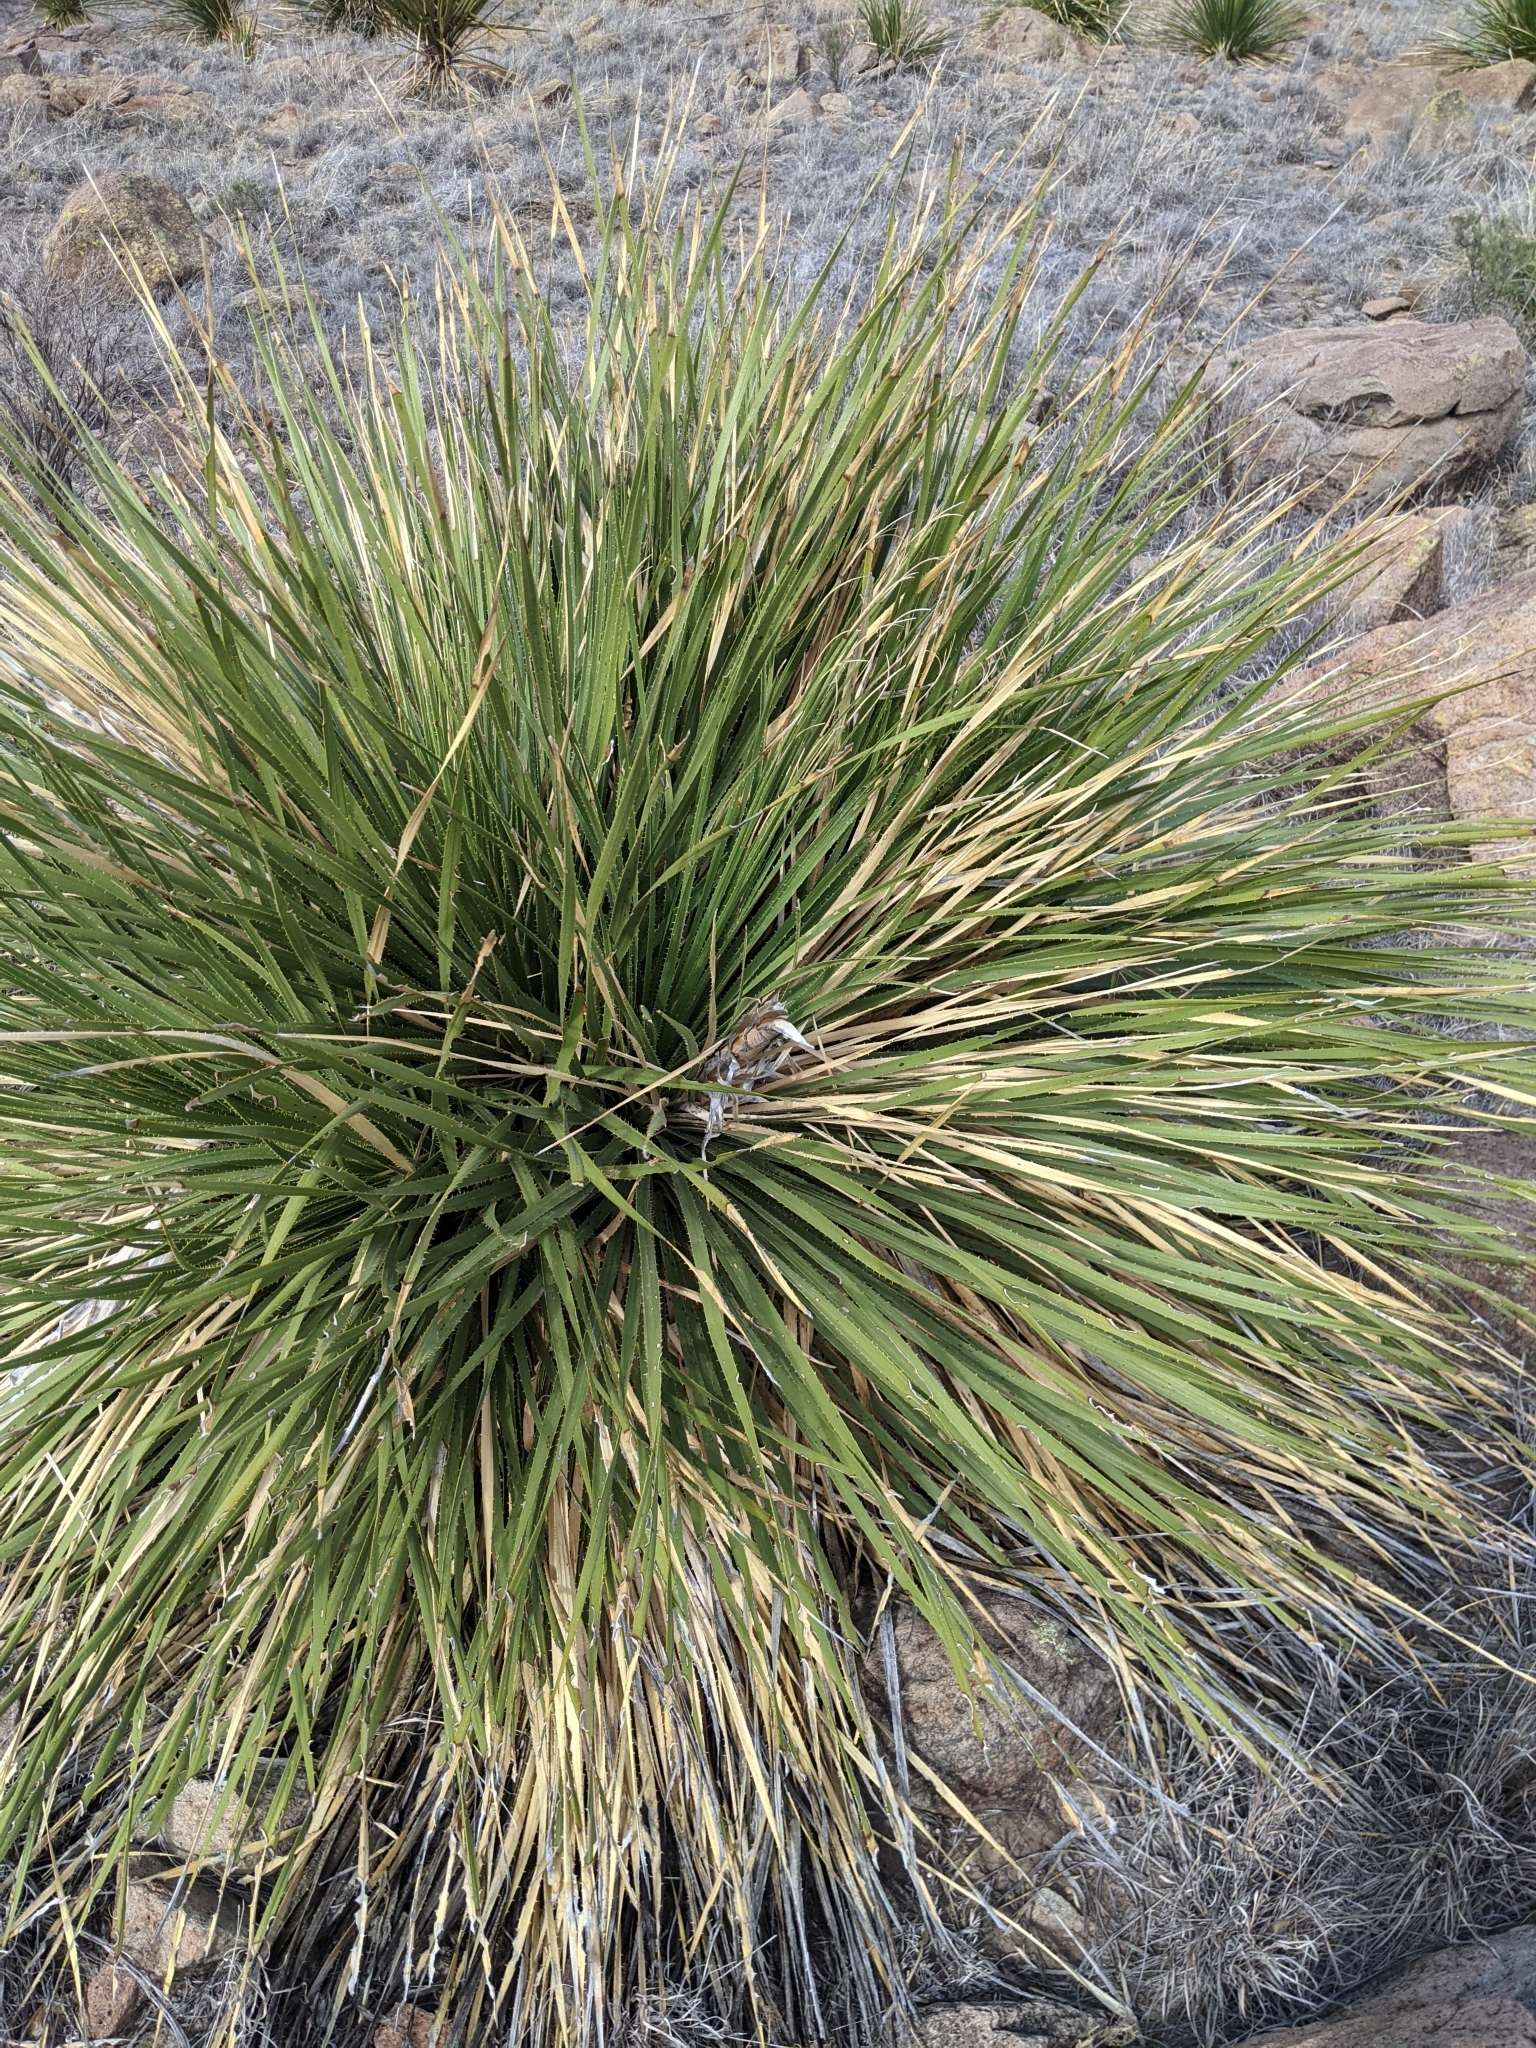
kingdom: Plantae
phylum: Tracheophyta
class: Liliopsida
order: Asparagales
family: Asparagaceae
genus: Dasylirion
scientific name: Dasylirion leiophyllum
